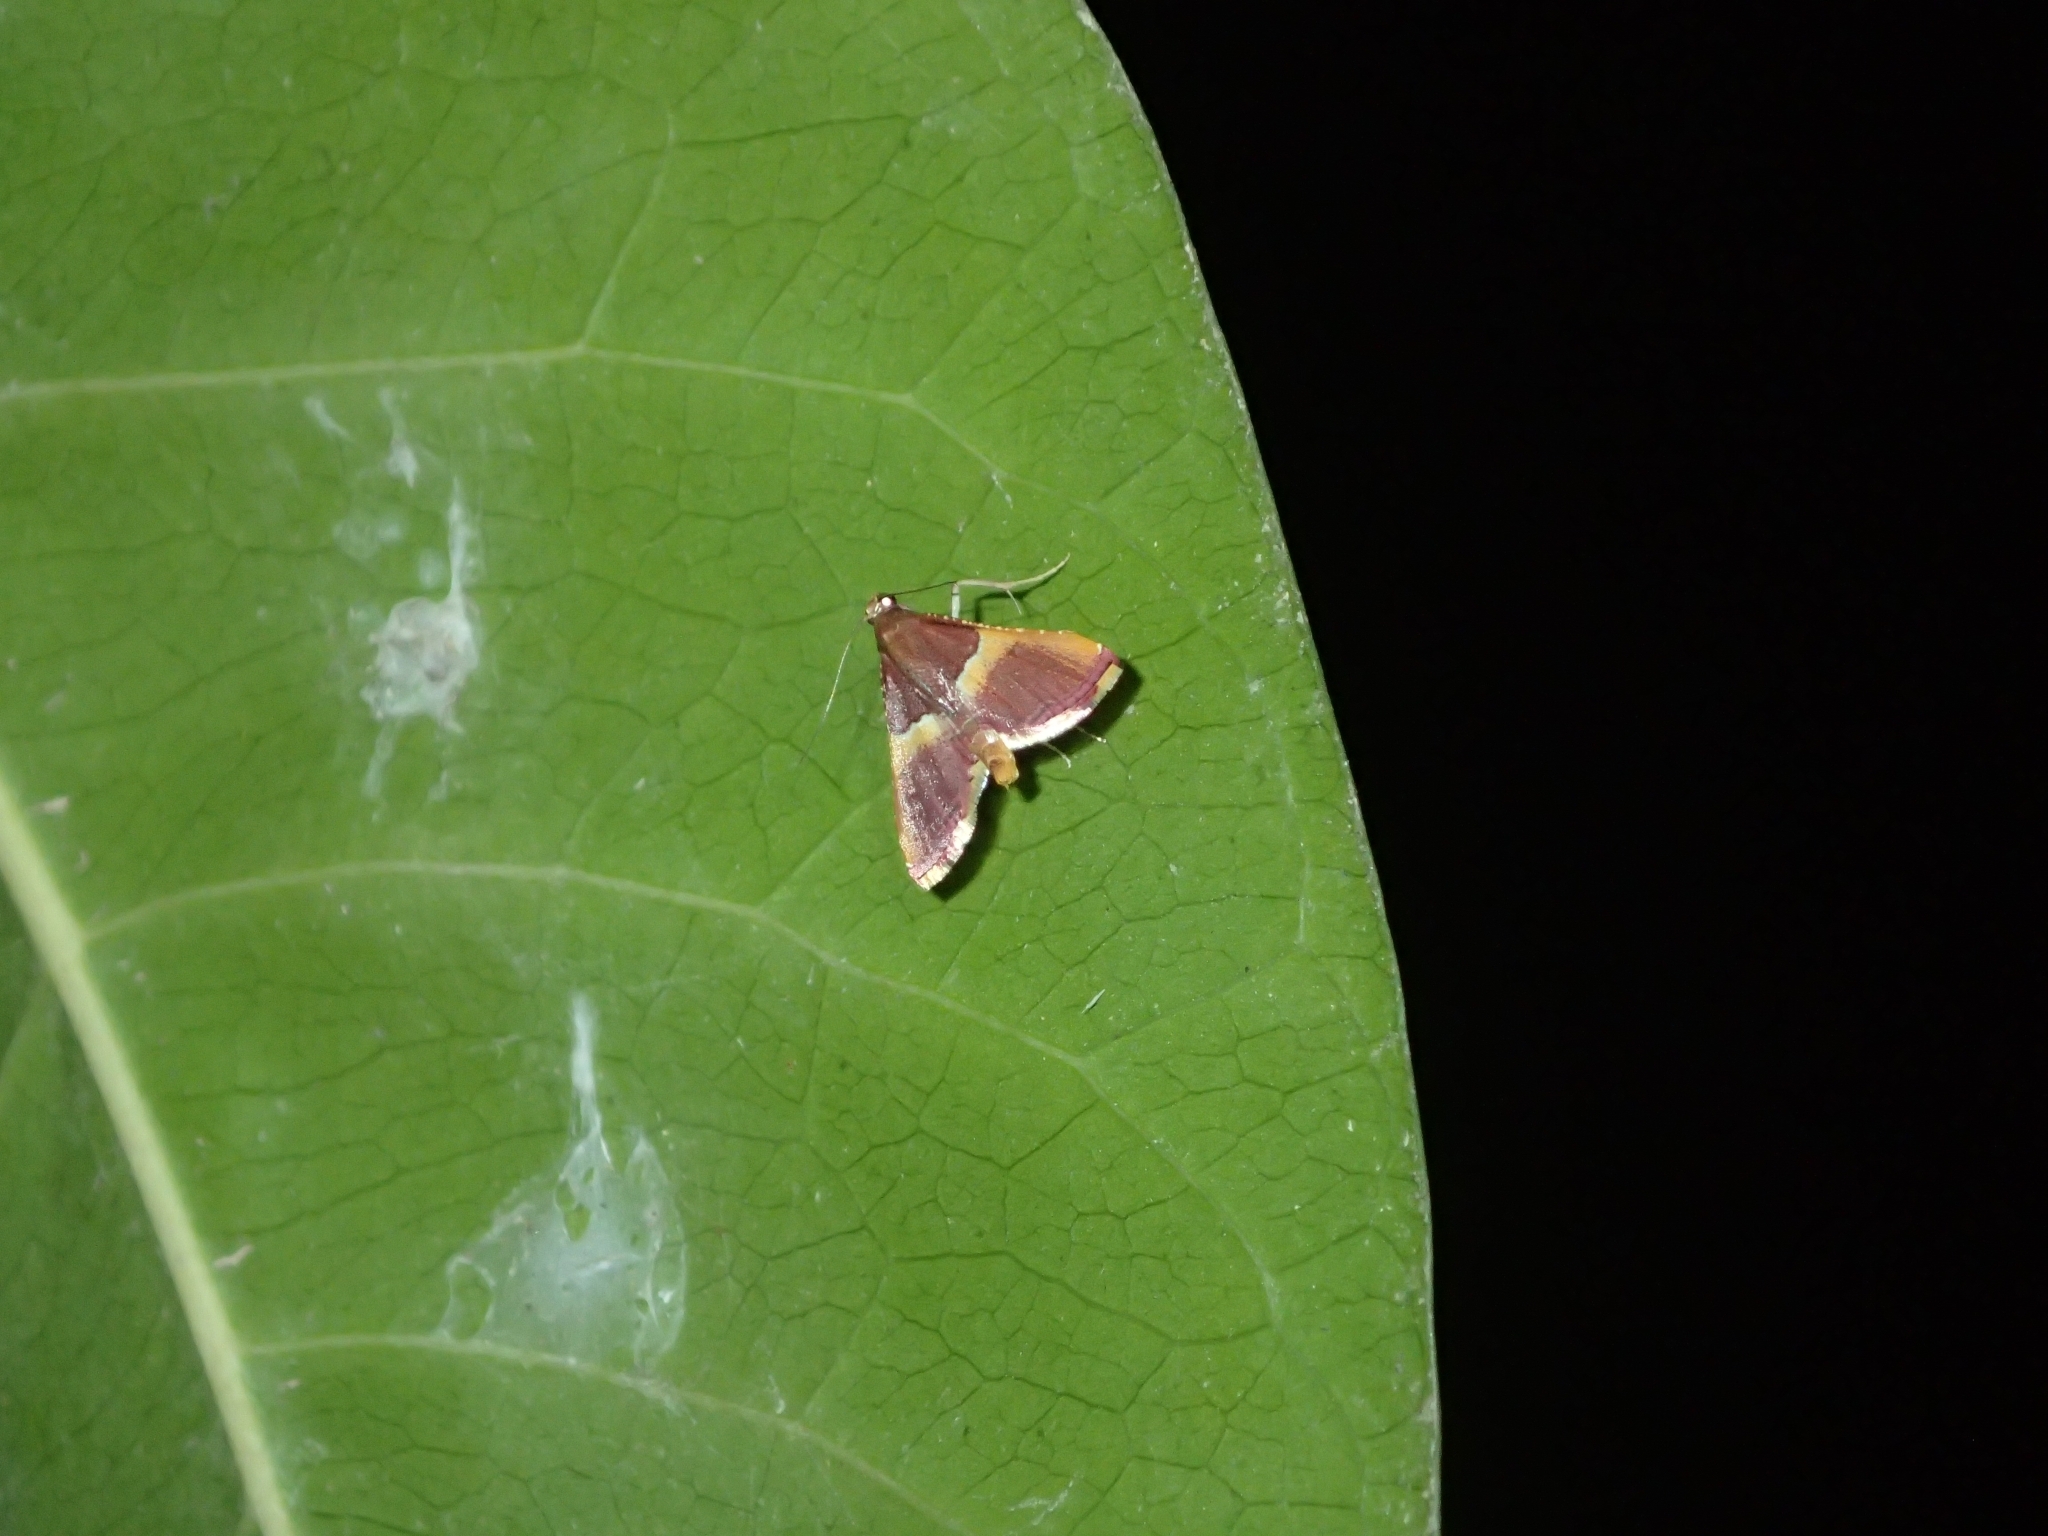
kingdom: Animalia
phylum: Arthropoda
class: Insecta
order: Lepidoptera
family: Pyralidae
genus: Endotricha
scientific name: Endotricha mesenterialis
